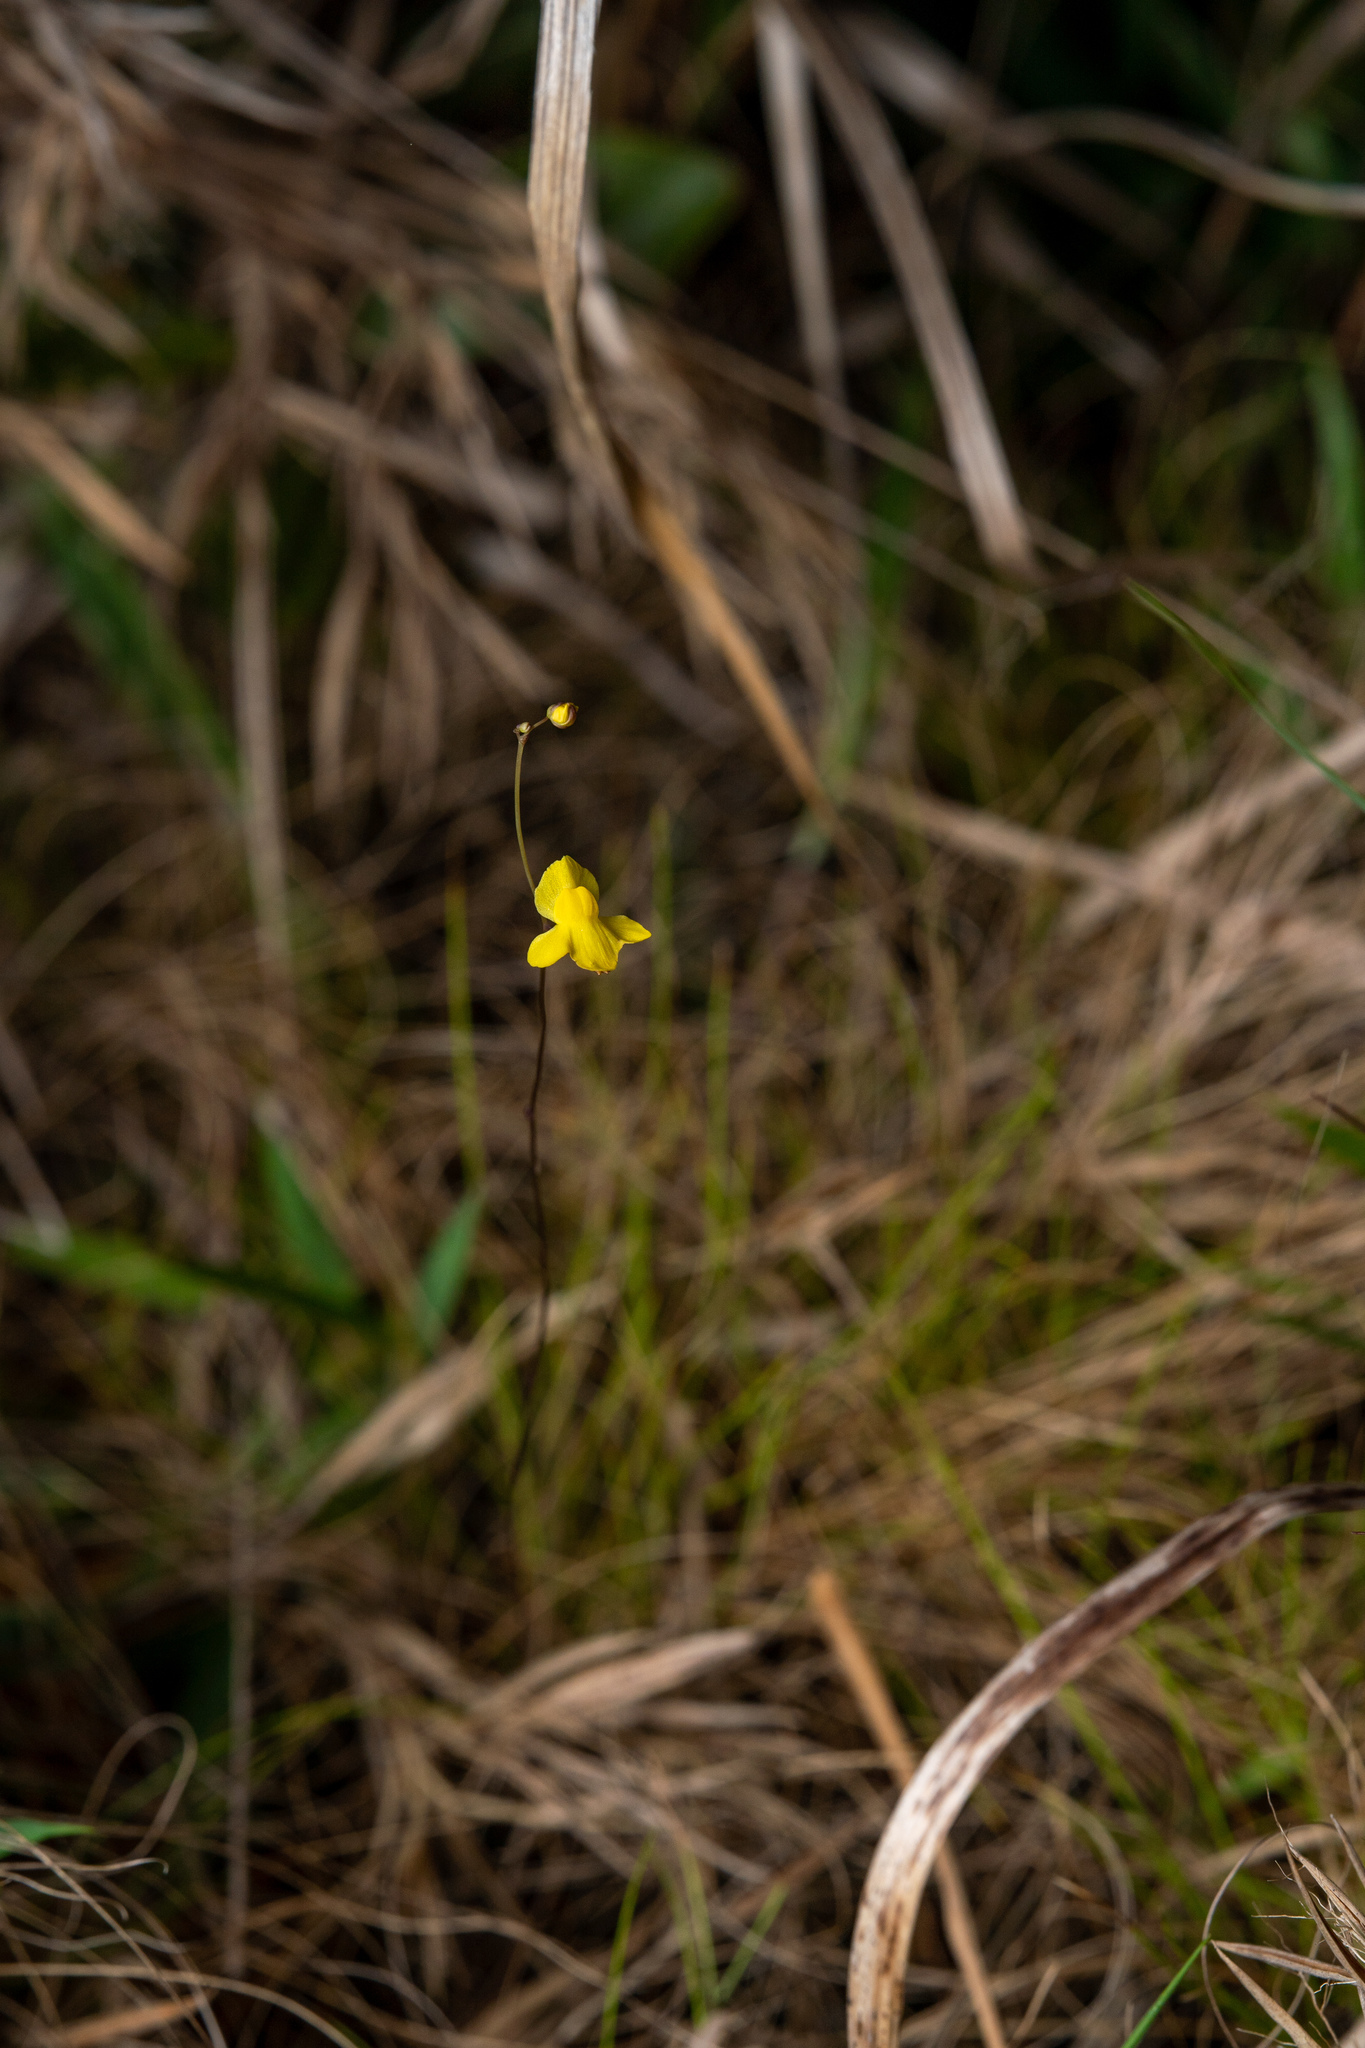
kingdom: Plantae
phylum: Tracheophyta
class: Magnoliopsida
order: Lamiales
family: Lentibulariaceae
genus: Utricularia
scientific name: Utricularia subulata
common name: Tiny bladderwort
